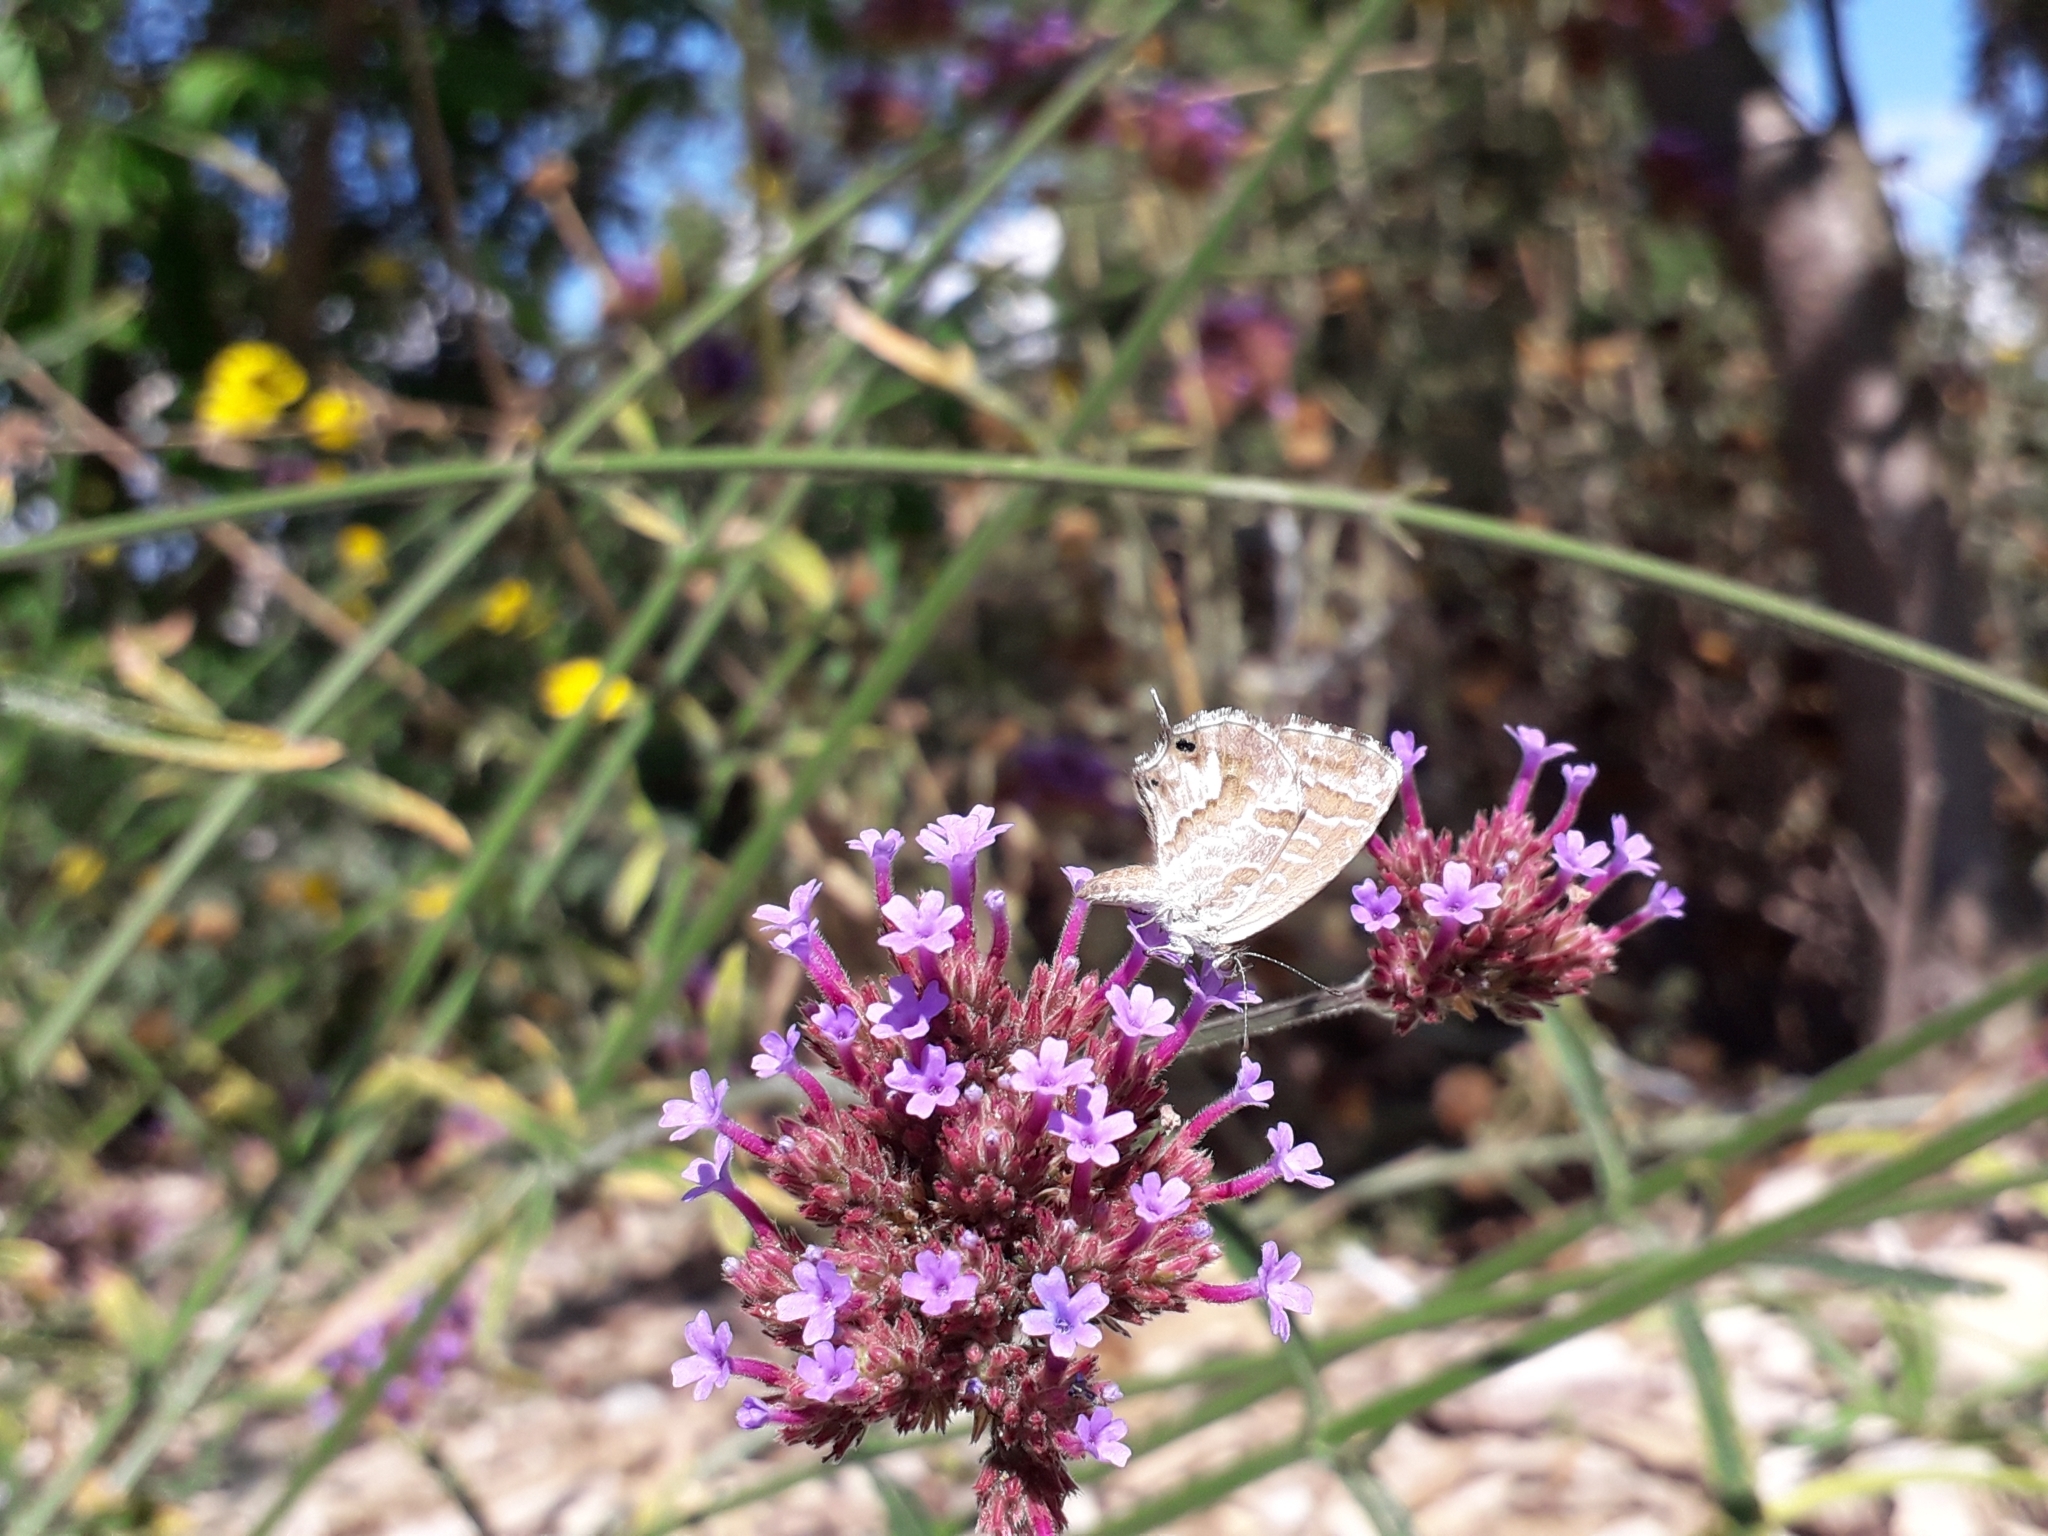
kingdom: Animalia
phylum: Arthropoda
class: Insecta
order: Lepidoptera
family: Lycaenidae
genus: Cacyreus
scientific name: Cacyreus marshalli
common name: Geranium bronze
